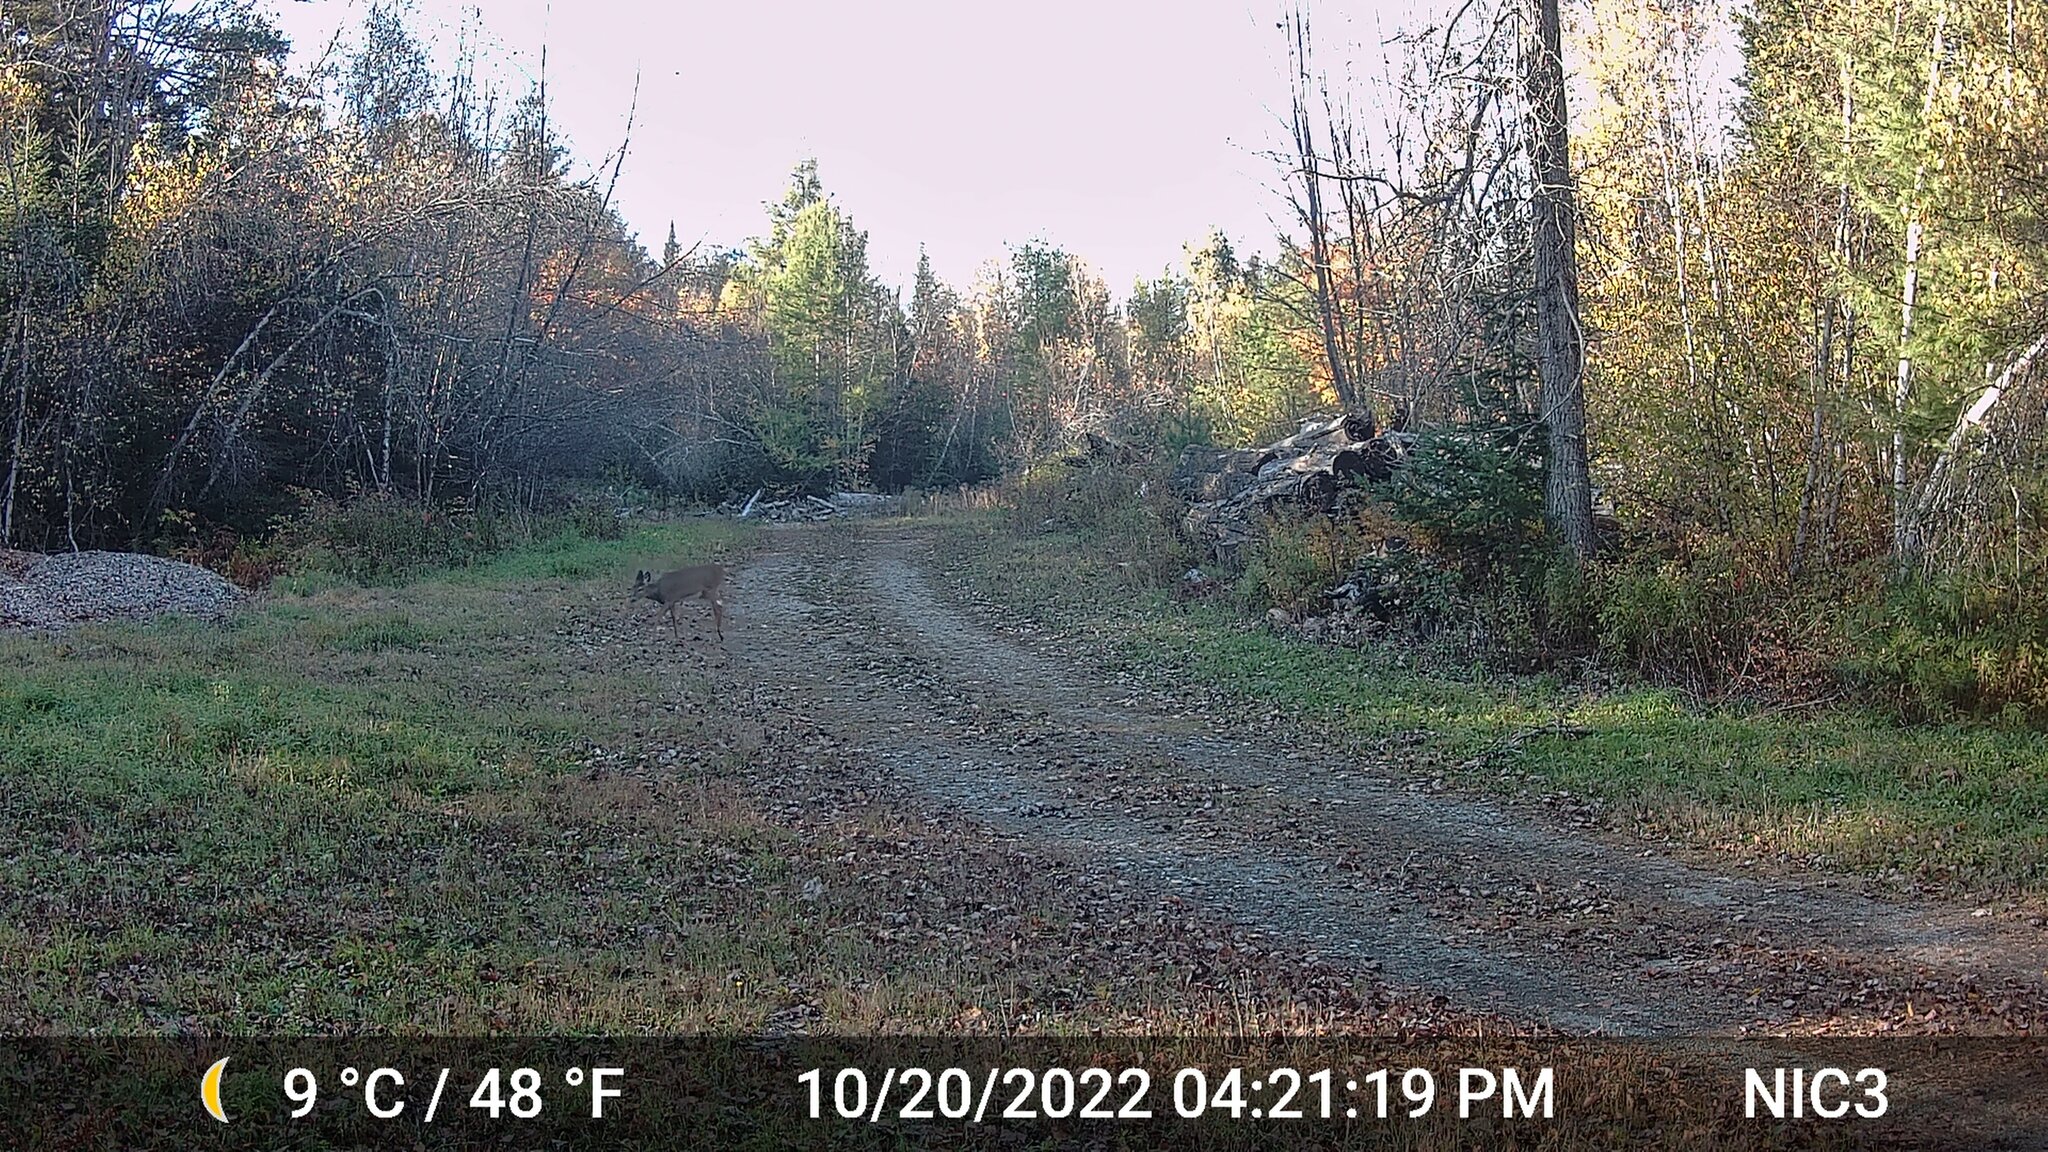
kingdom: Animalia
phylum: Chordata
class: Mammalia
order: Artiodactyla
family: Cervidae
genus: Odocoileus
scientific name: Odocoileus virginianus
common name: White-tailed deer
